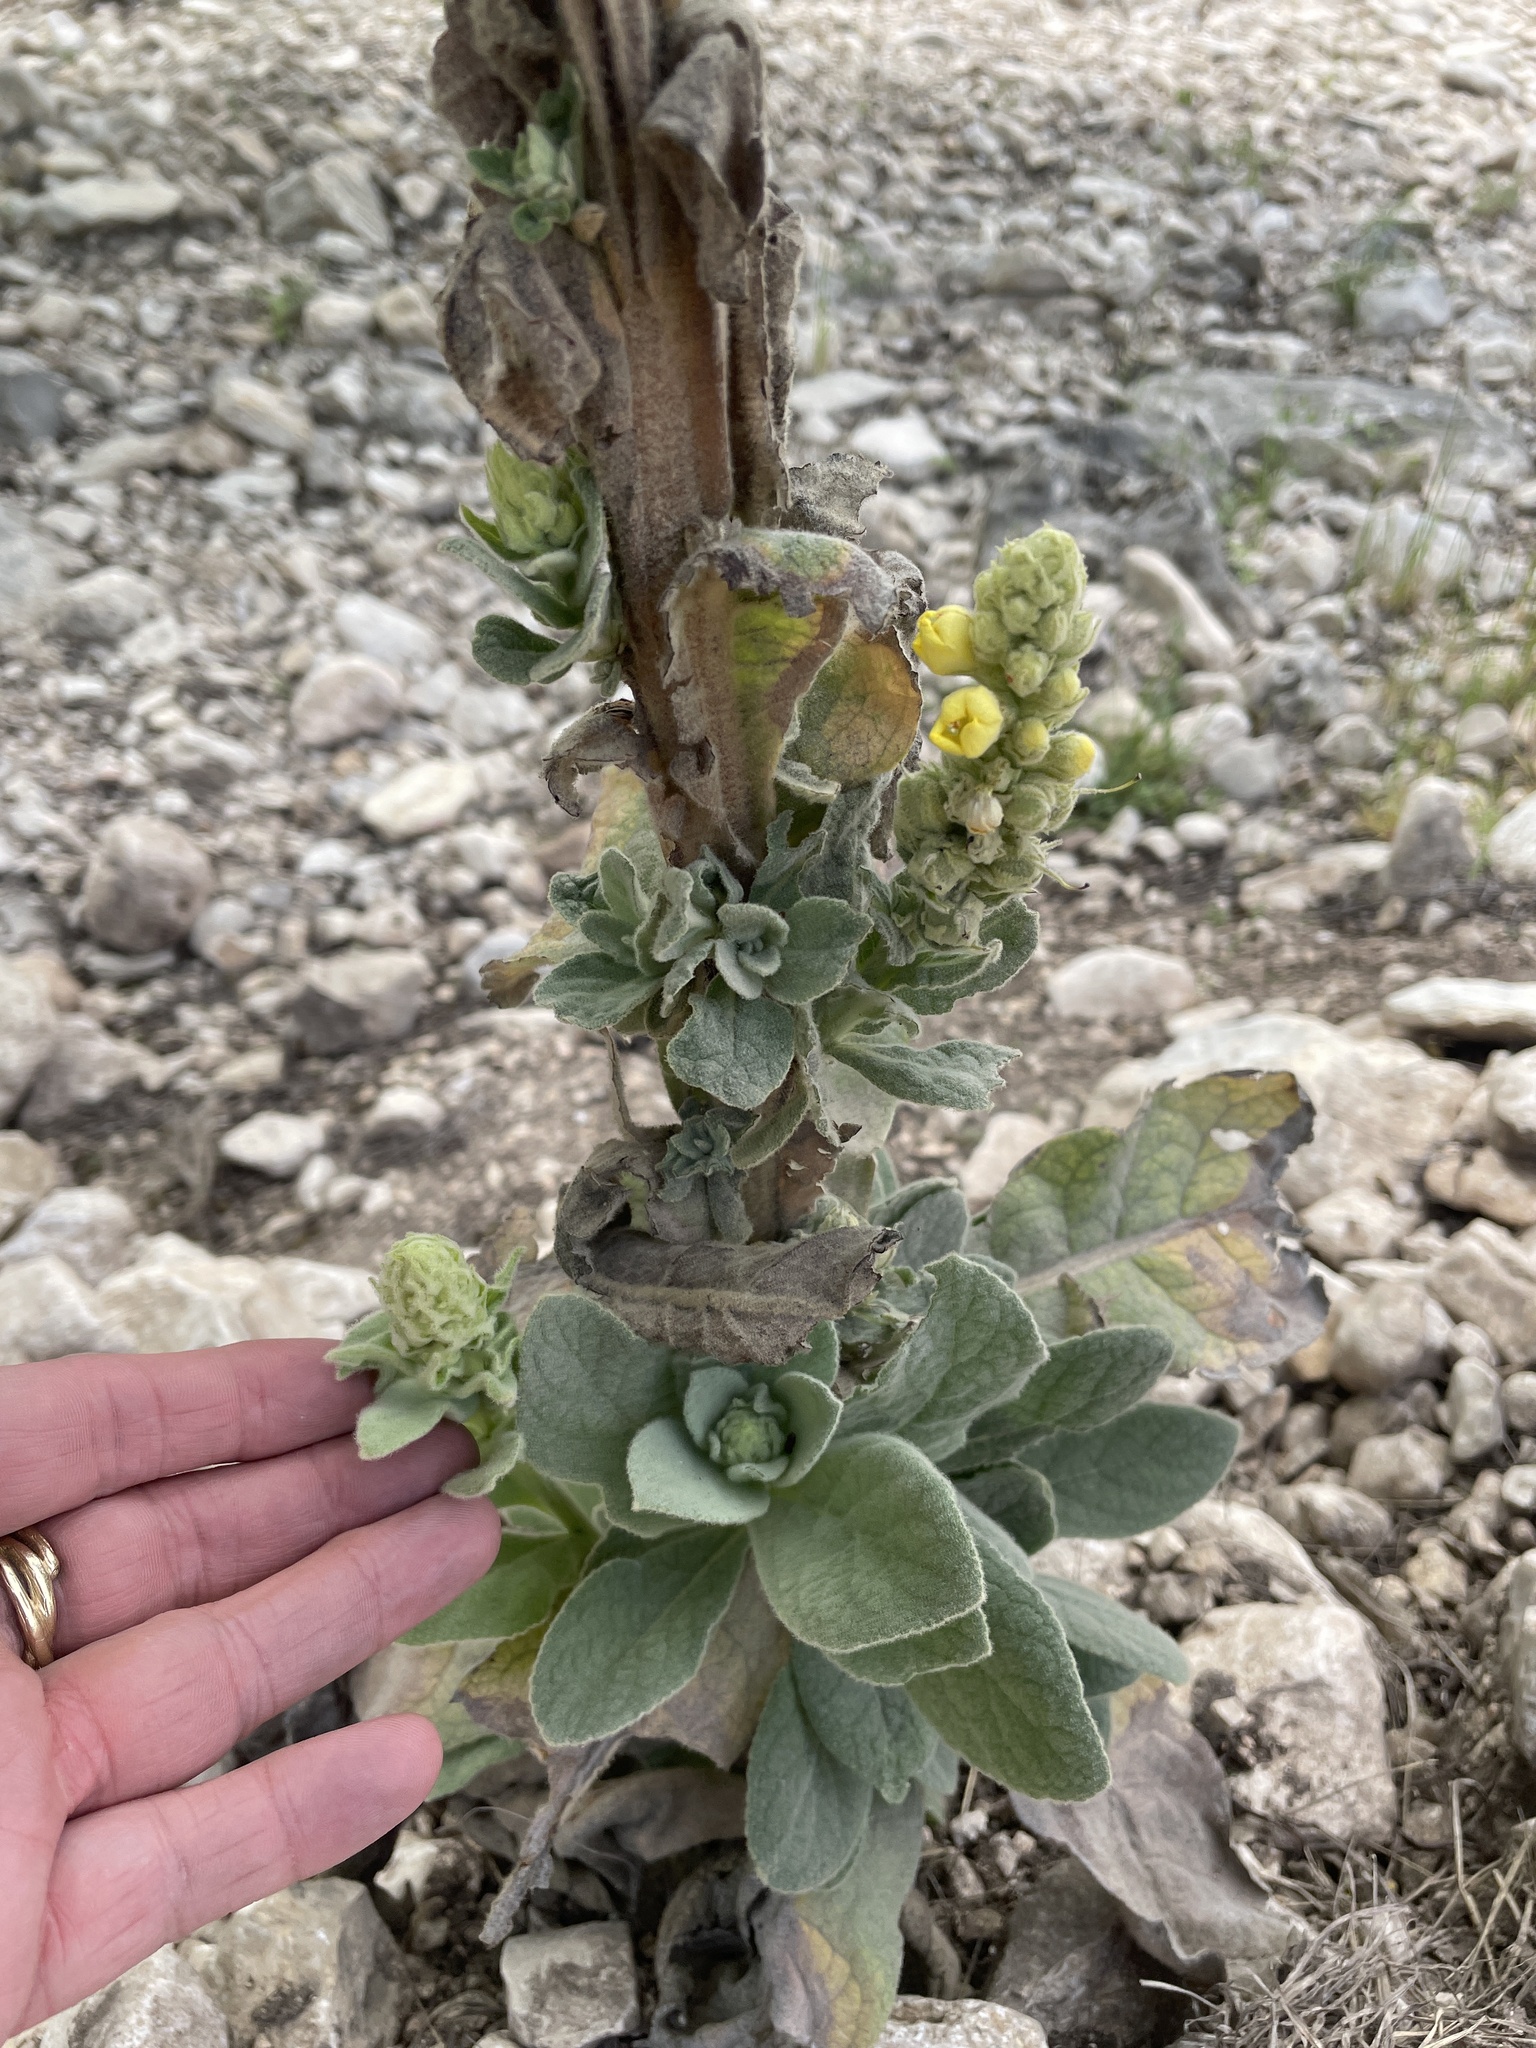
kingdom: Plantae
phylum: Tracheophyta
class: Magnoliopsida
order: Lamiales
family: Scrophulariaceae
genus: Verbascum
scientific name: Verbascum thapsus
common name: Common mullein
